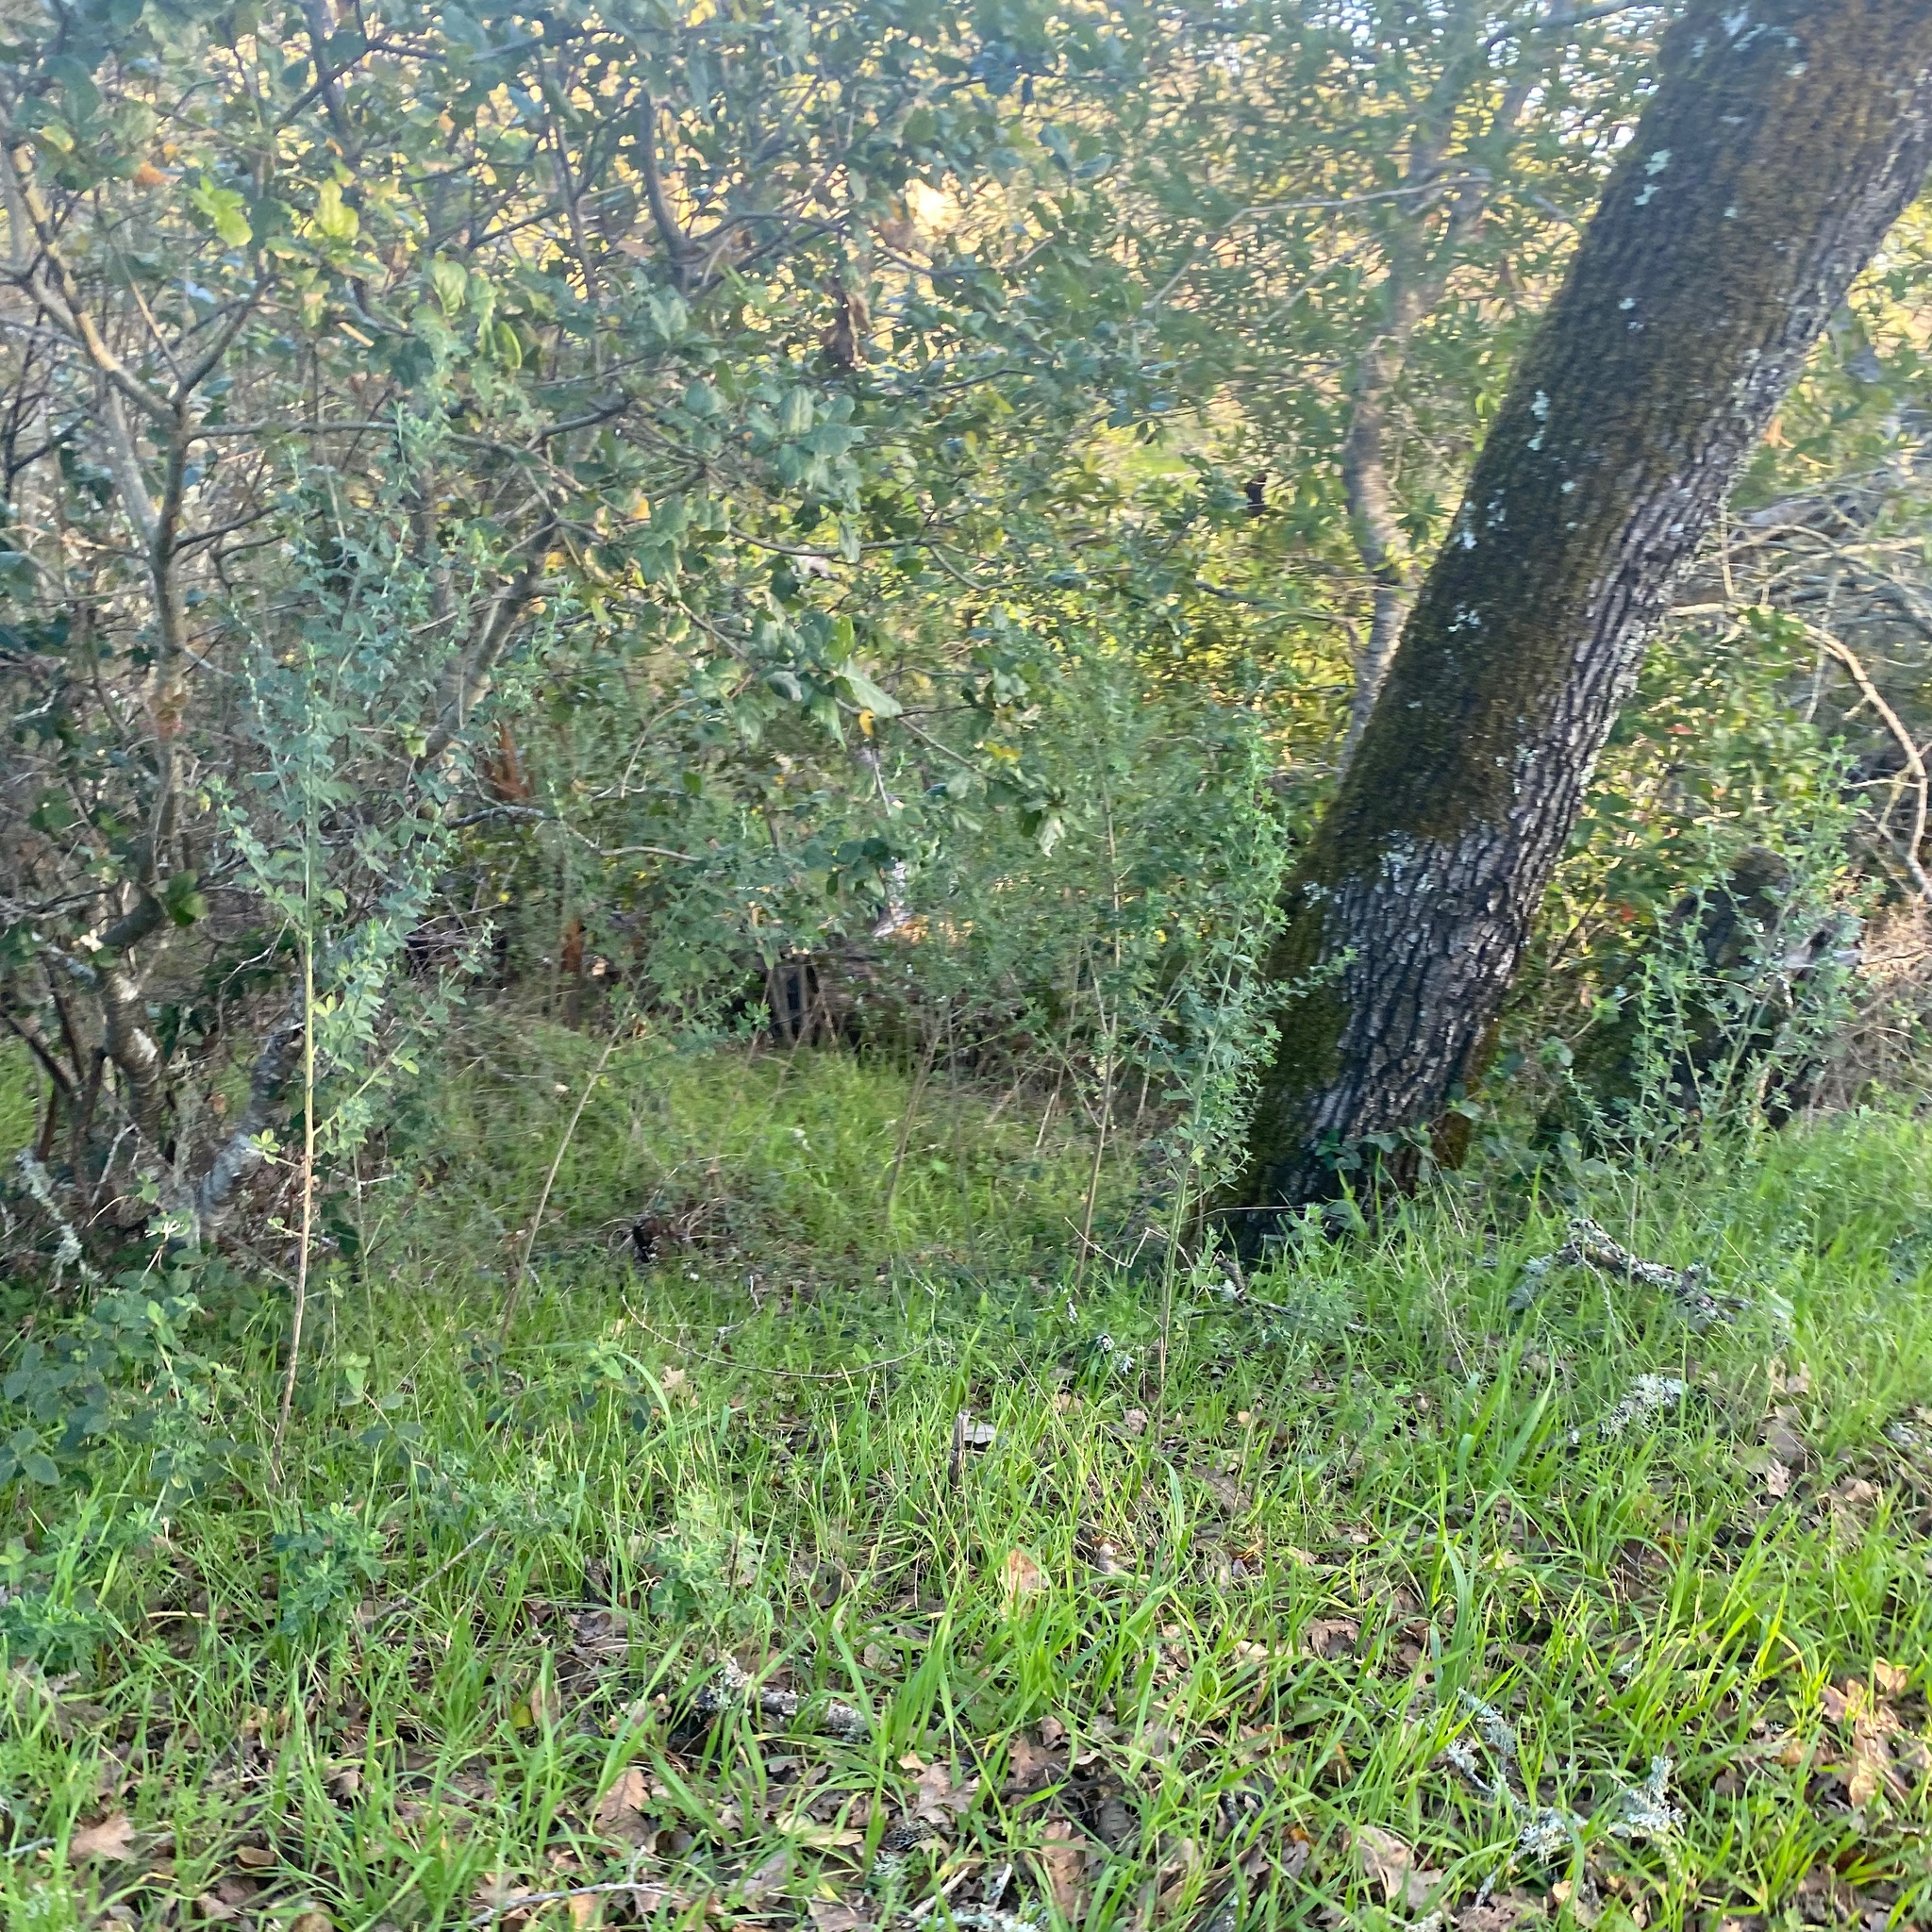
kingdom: Plantae
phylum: Tracheophyta
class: Magnoliopsida
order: Fabales
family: Fabaceae
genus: Genista
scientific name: Genista monspessulana
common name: Montpellier broom
